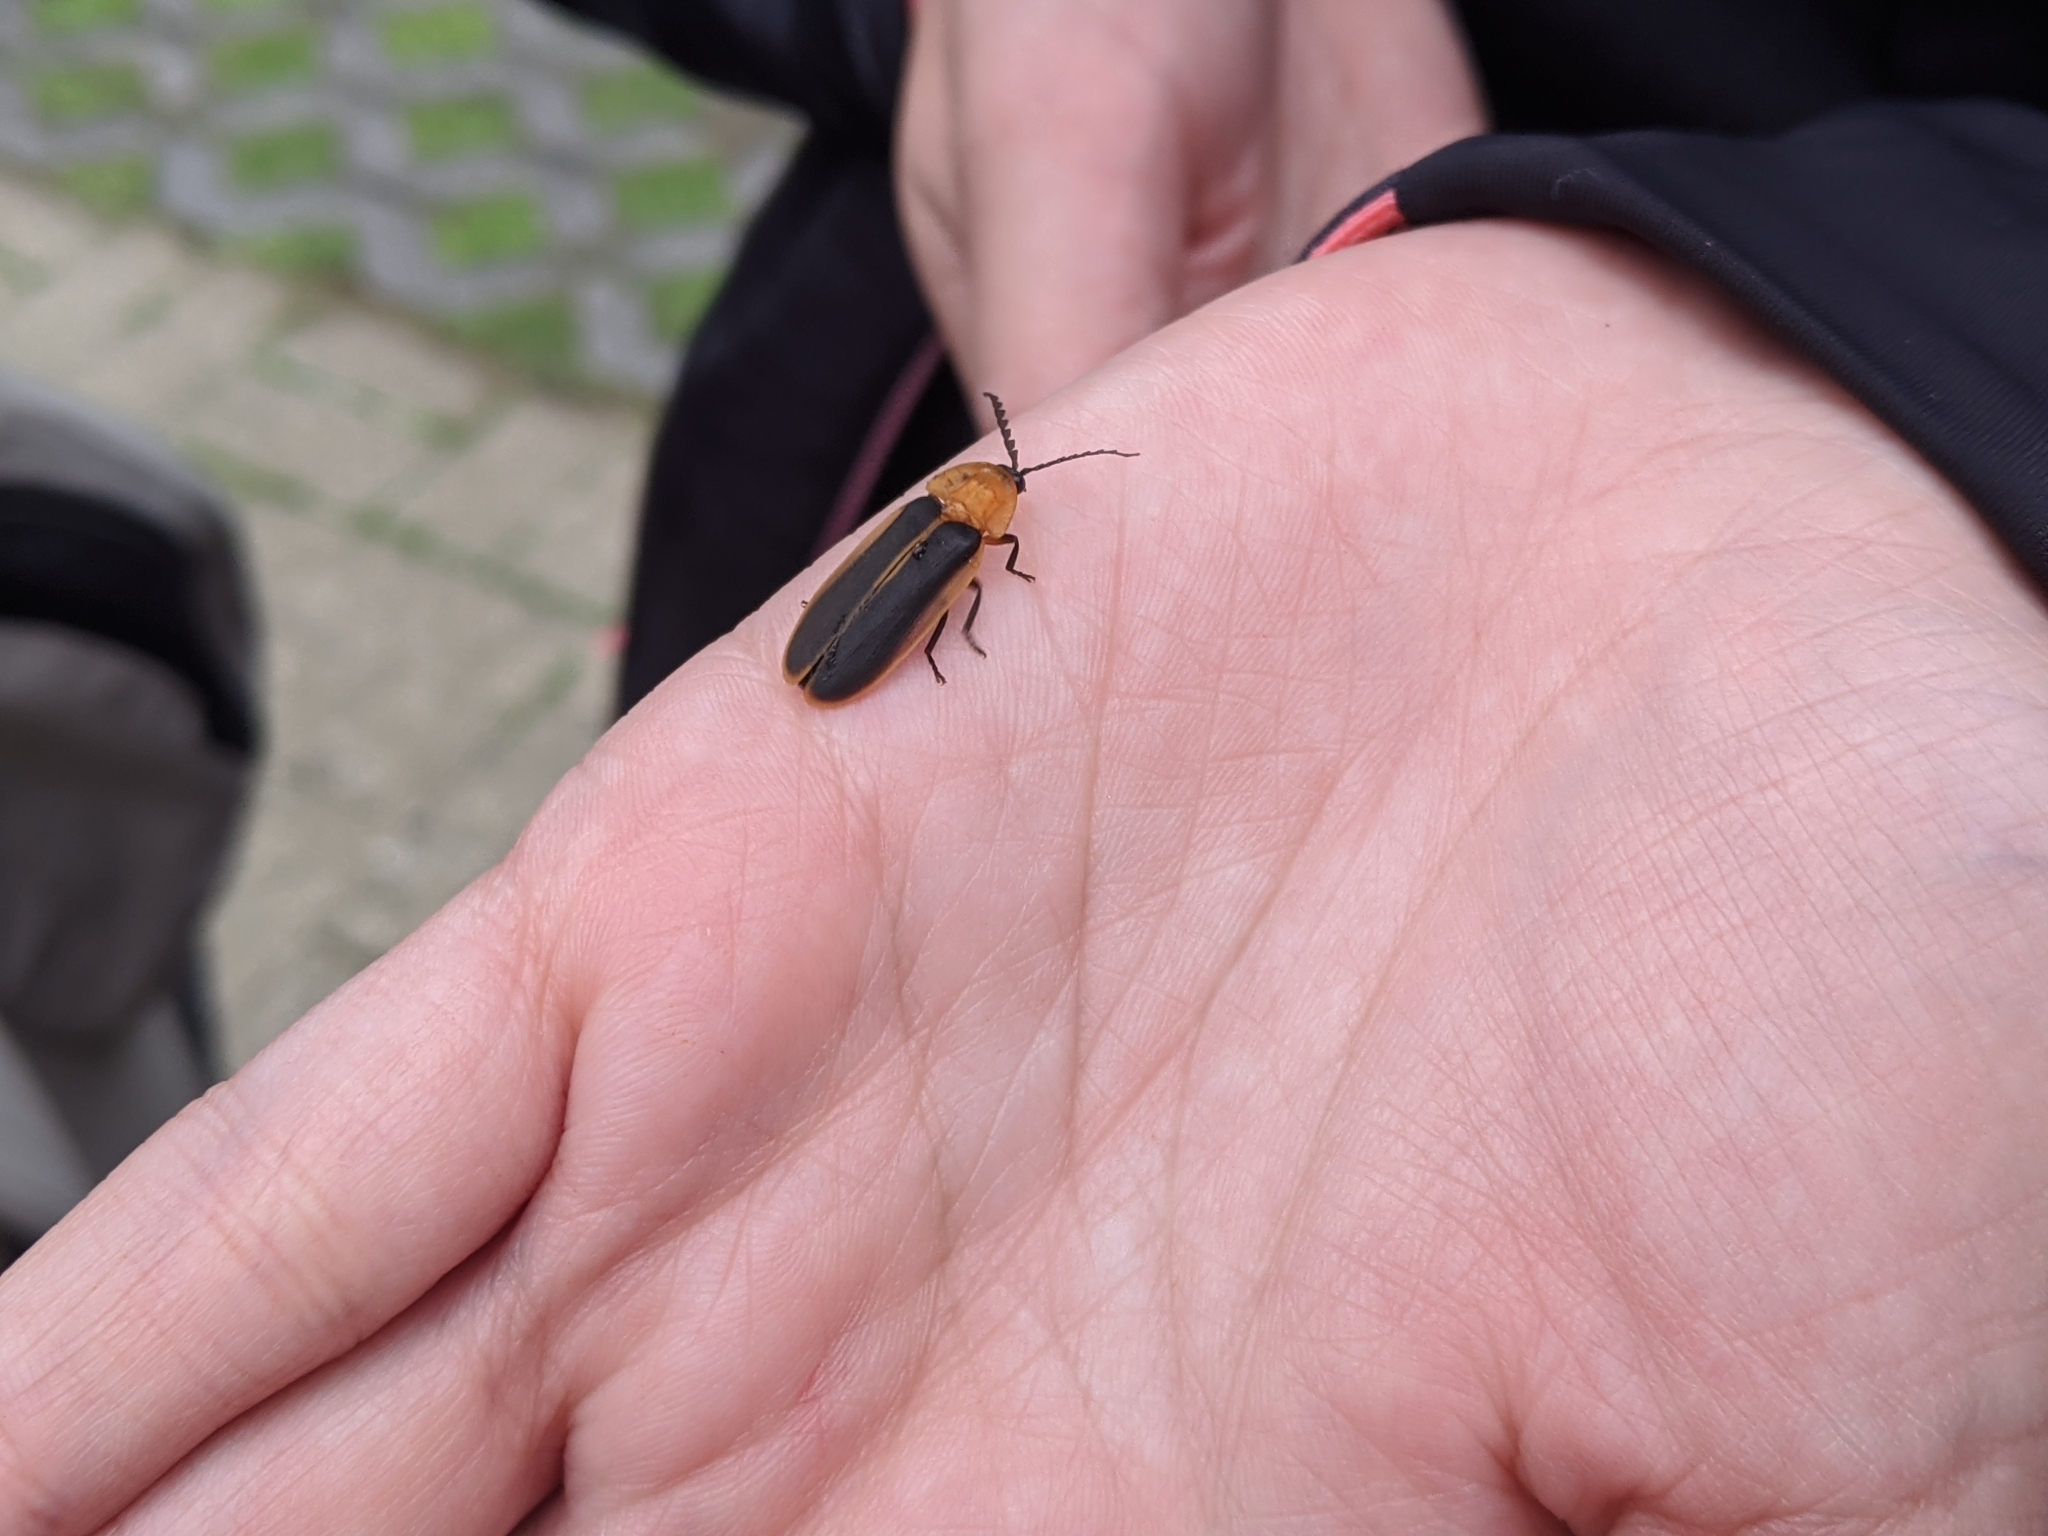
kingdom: Animalia
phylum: Arthropoda
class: Insecta
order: Coleoptera
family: Lampyridae
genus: Pyrocoelia
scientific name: Pyrocoelia analis
